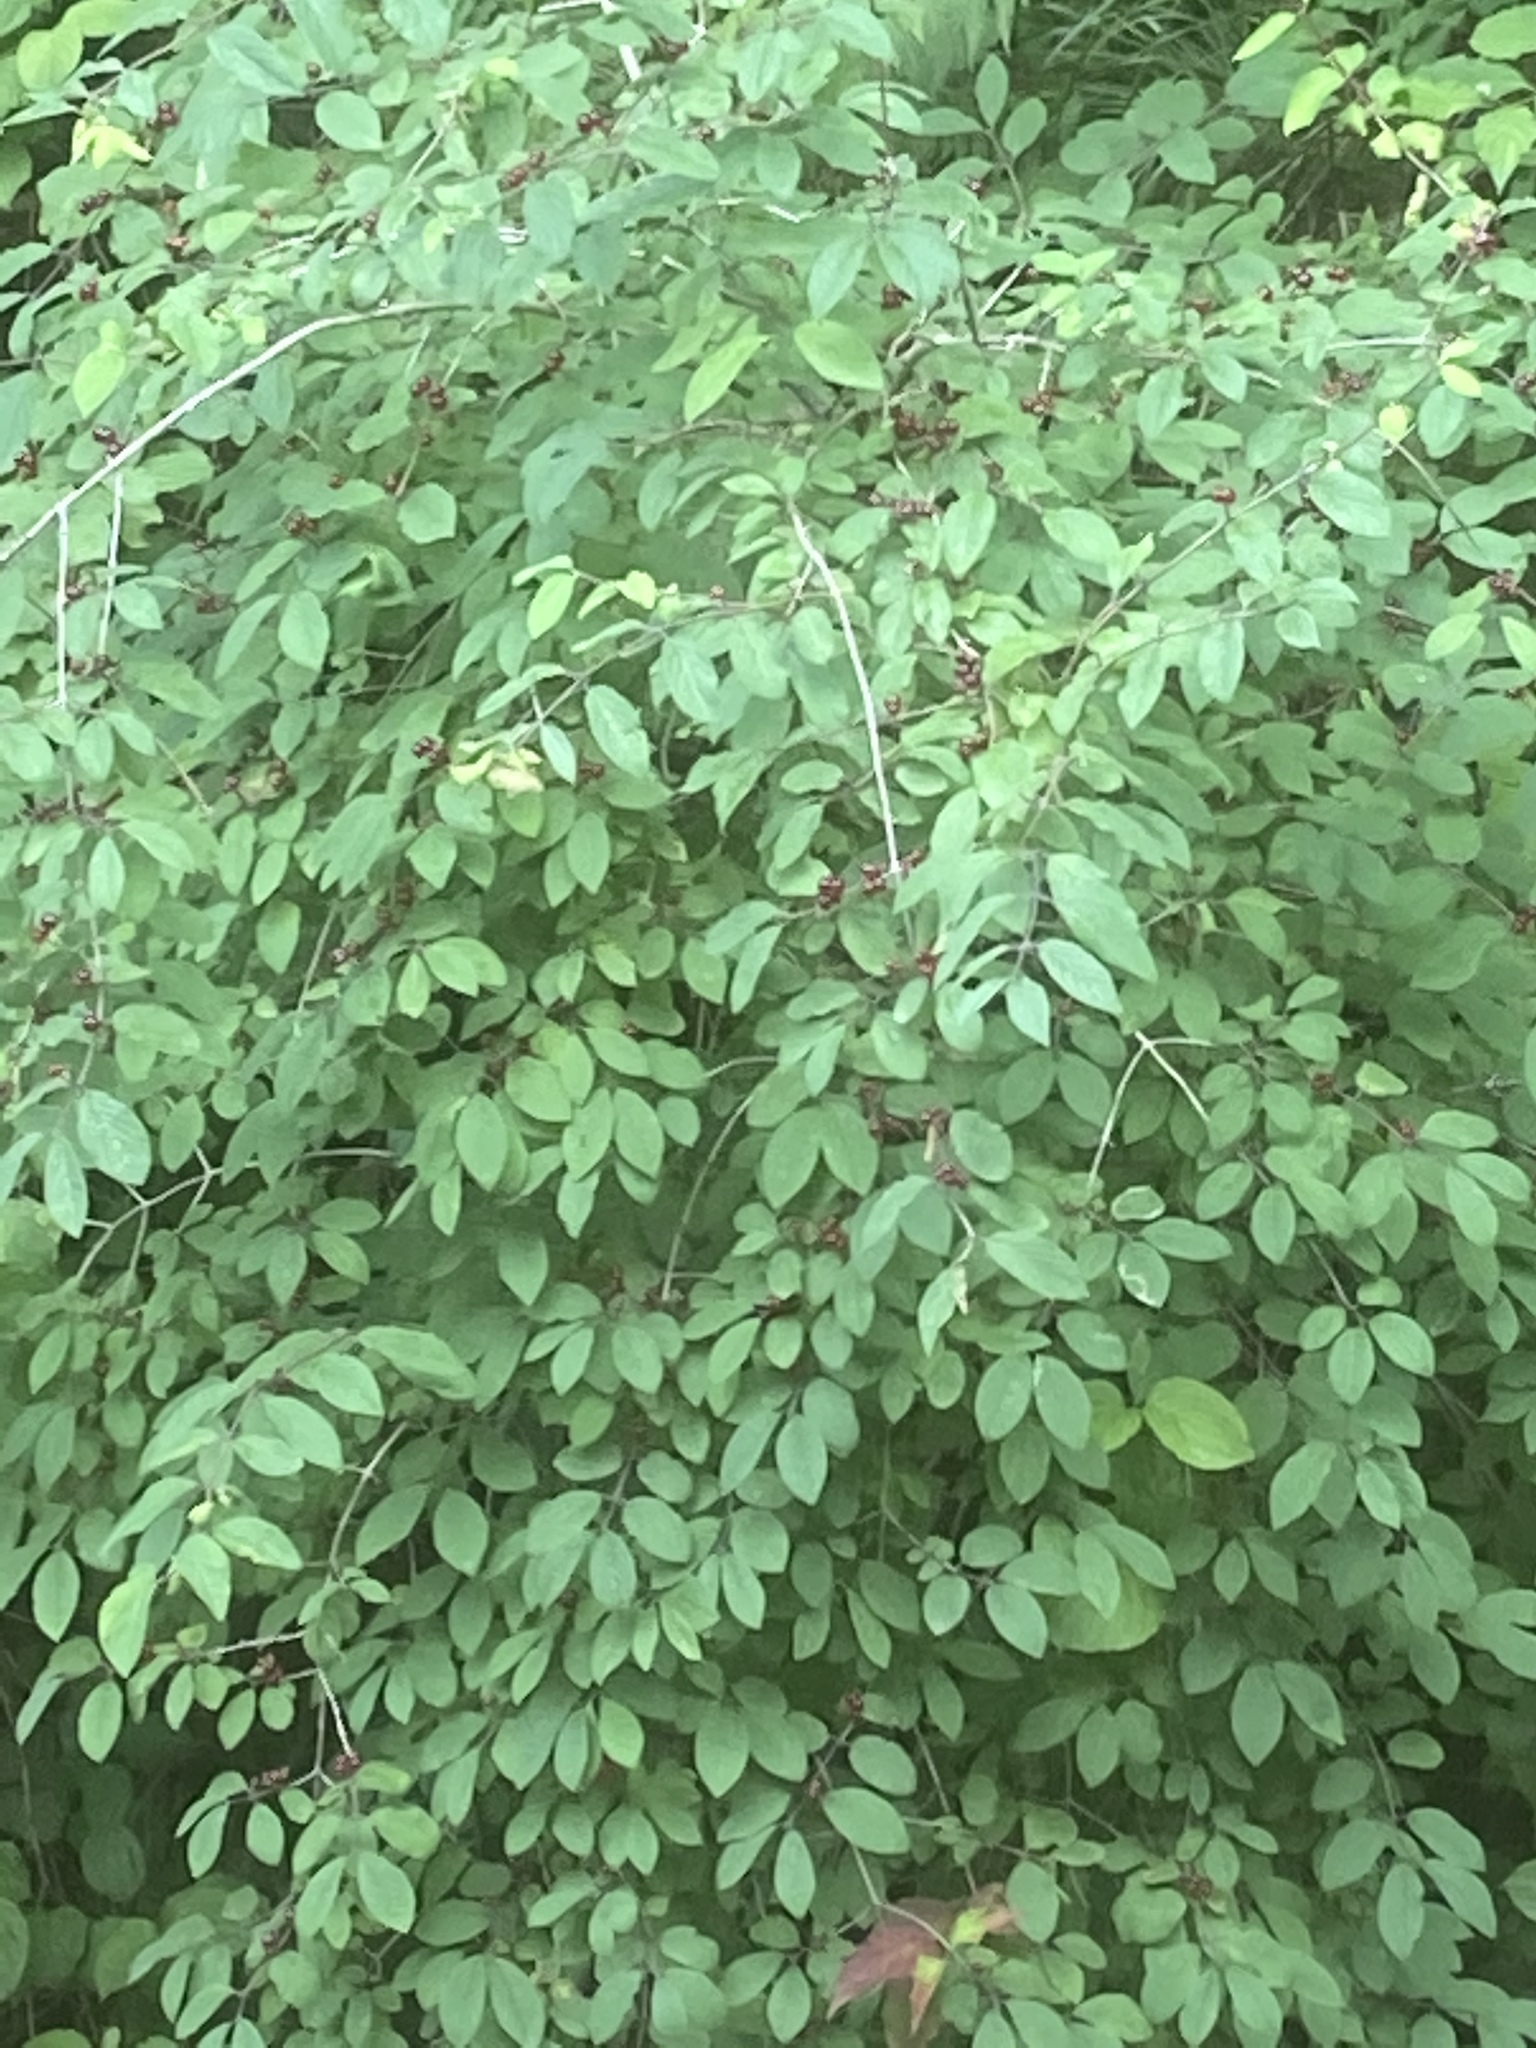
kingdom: Plantae
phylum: Tracheophyta
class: Magnoliopsida
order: Dipsacales
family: Caprifoliaceae
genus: Lonicera
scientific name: Lonicera xylosteum
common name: Fly honeysuckle
